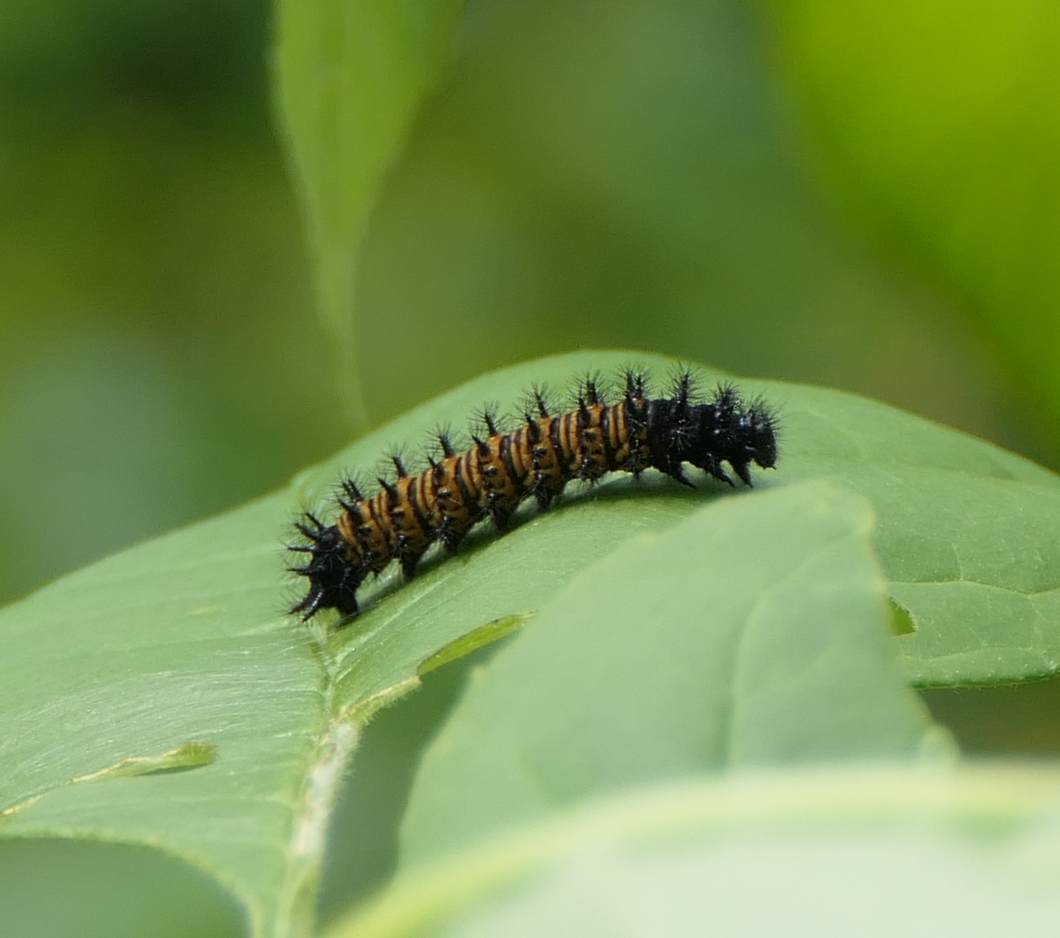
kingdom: Animalia
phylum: Arthropoda
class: Insecta
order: Lepidoptera
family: Nymphalidae
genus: Euphydryas
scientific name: Euphydryas phaeton
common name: Baltimore checkerspot
